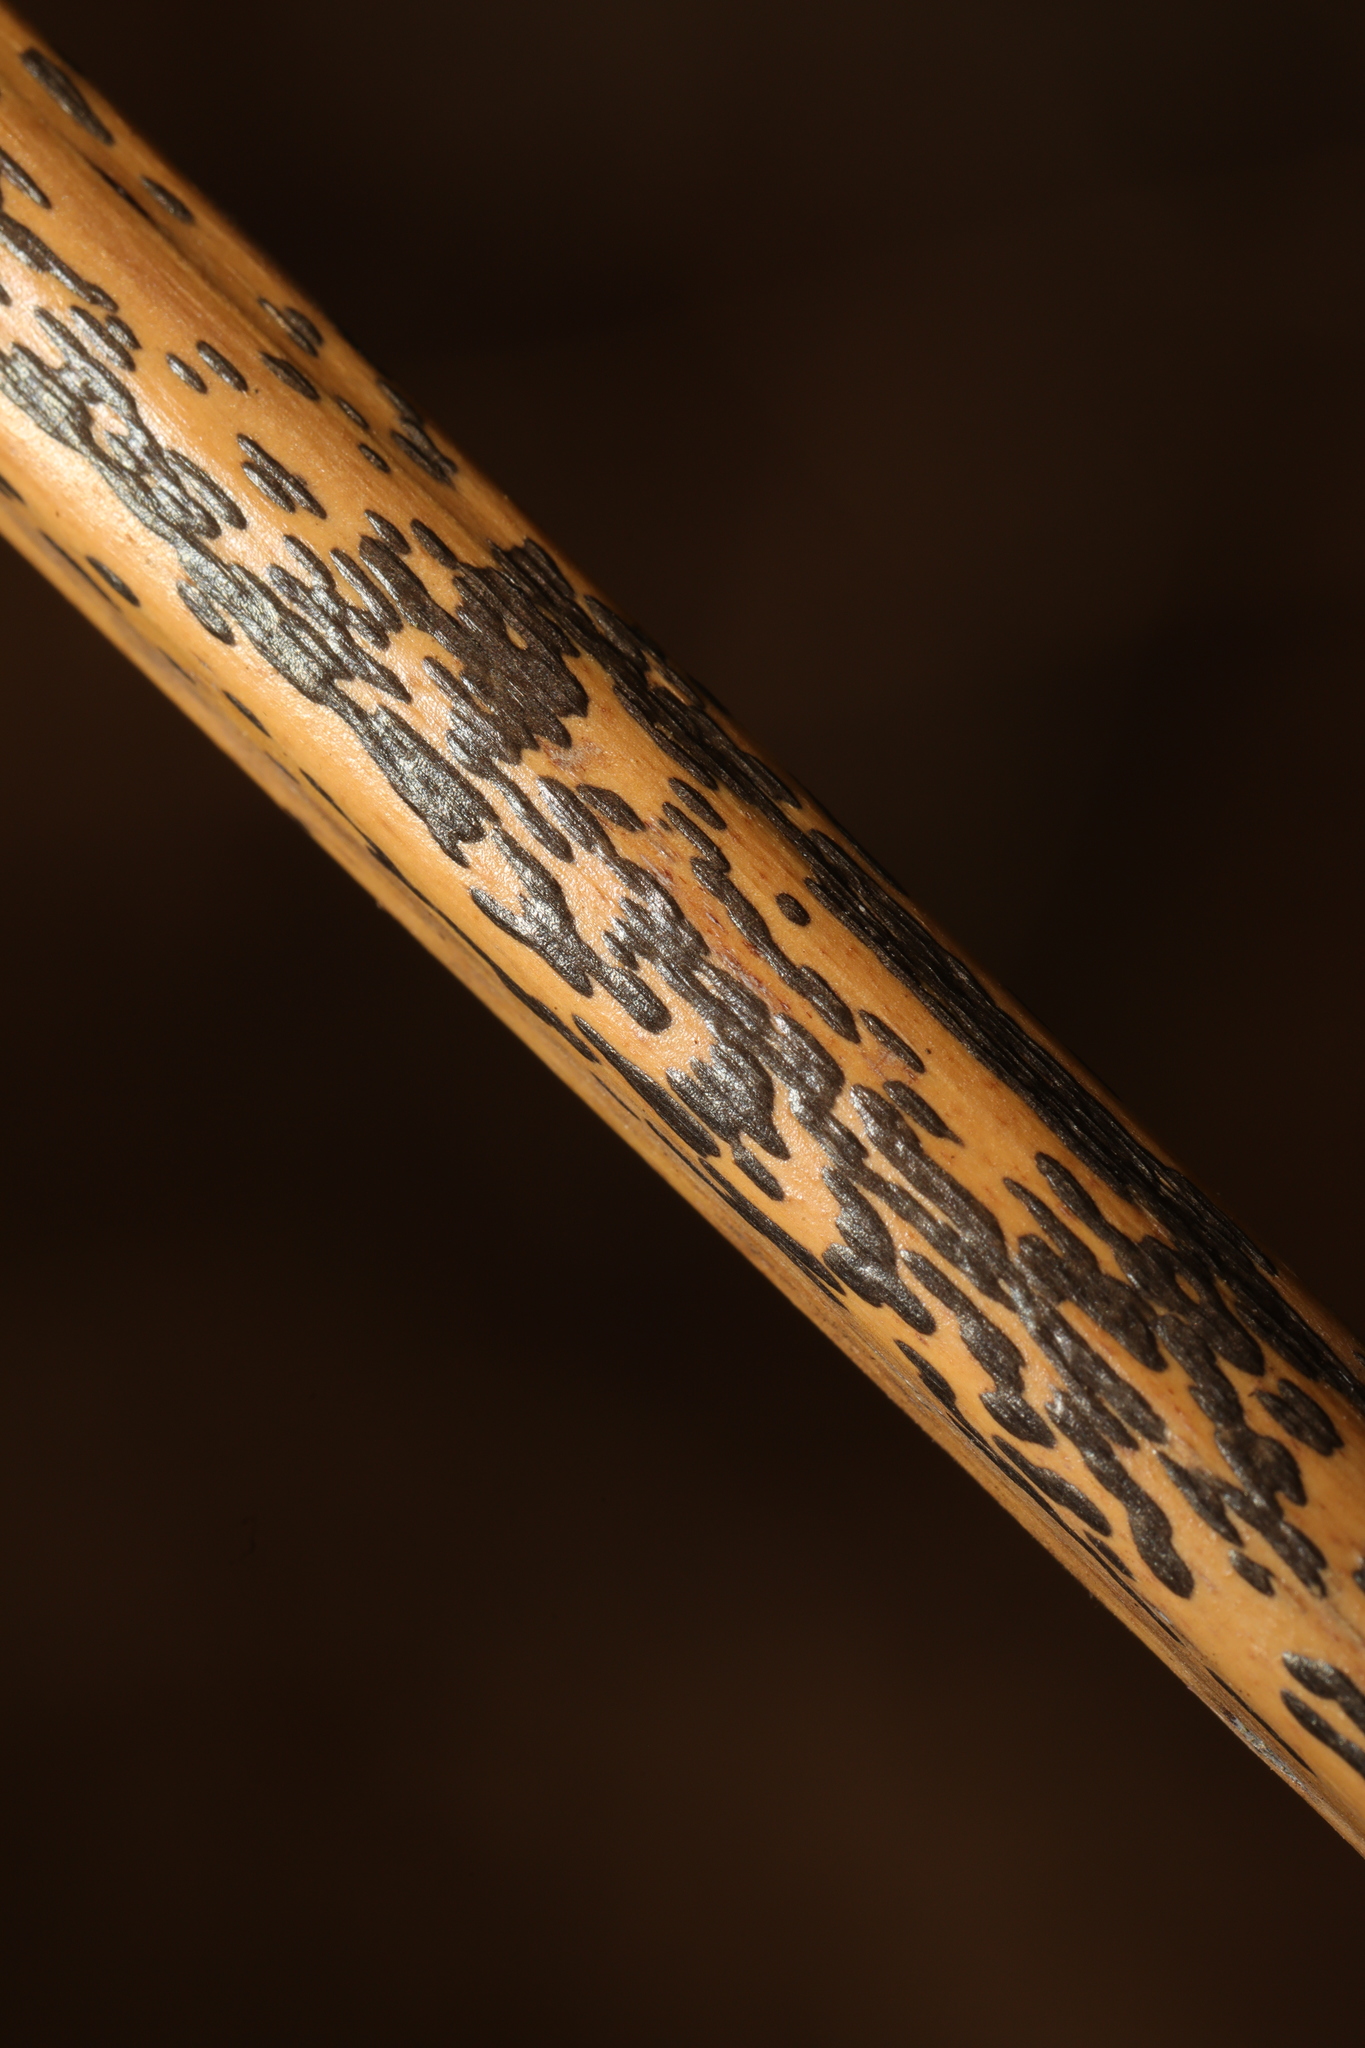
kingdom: Fungi
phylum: Ascomycota
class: Dothideomycetes
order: Pleosporales
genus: Rhopographus
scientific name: Rhopographus filicinus
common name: Bracken map
